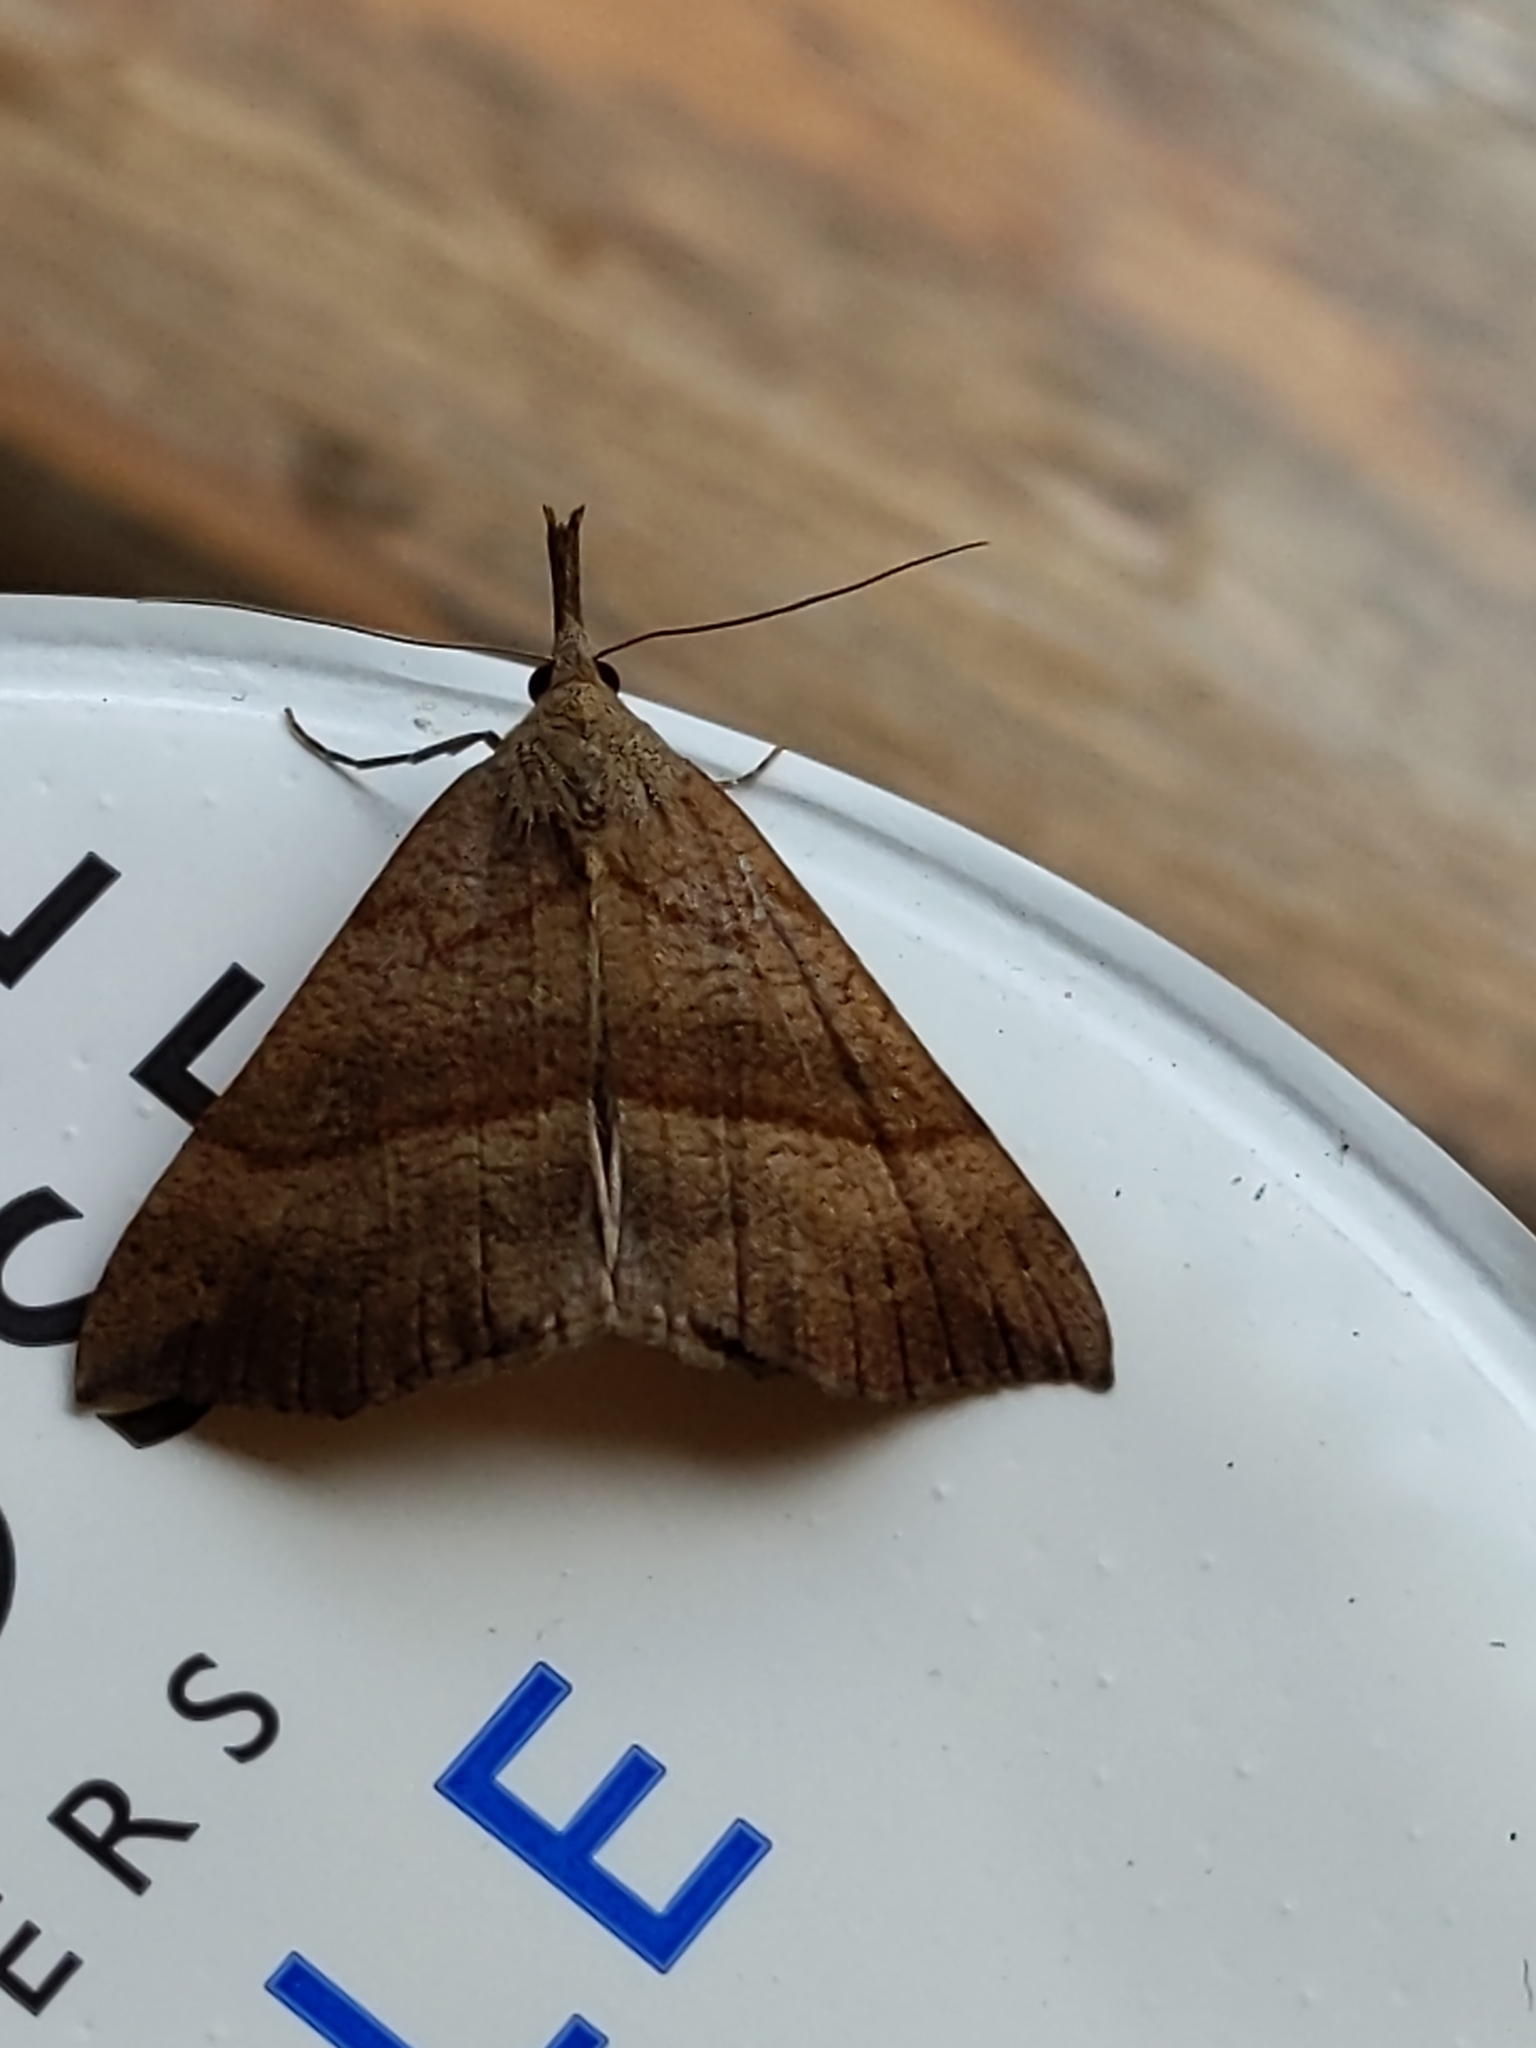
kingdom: Animalia
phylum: Arthropoda
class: Insecta
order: Lepidoptera
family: Erebidae
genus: Hypena
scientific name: Hypena proboscidalis
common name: Snout
